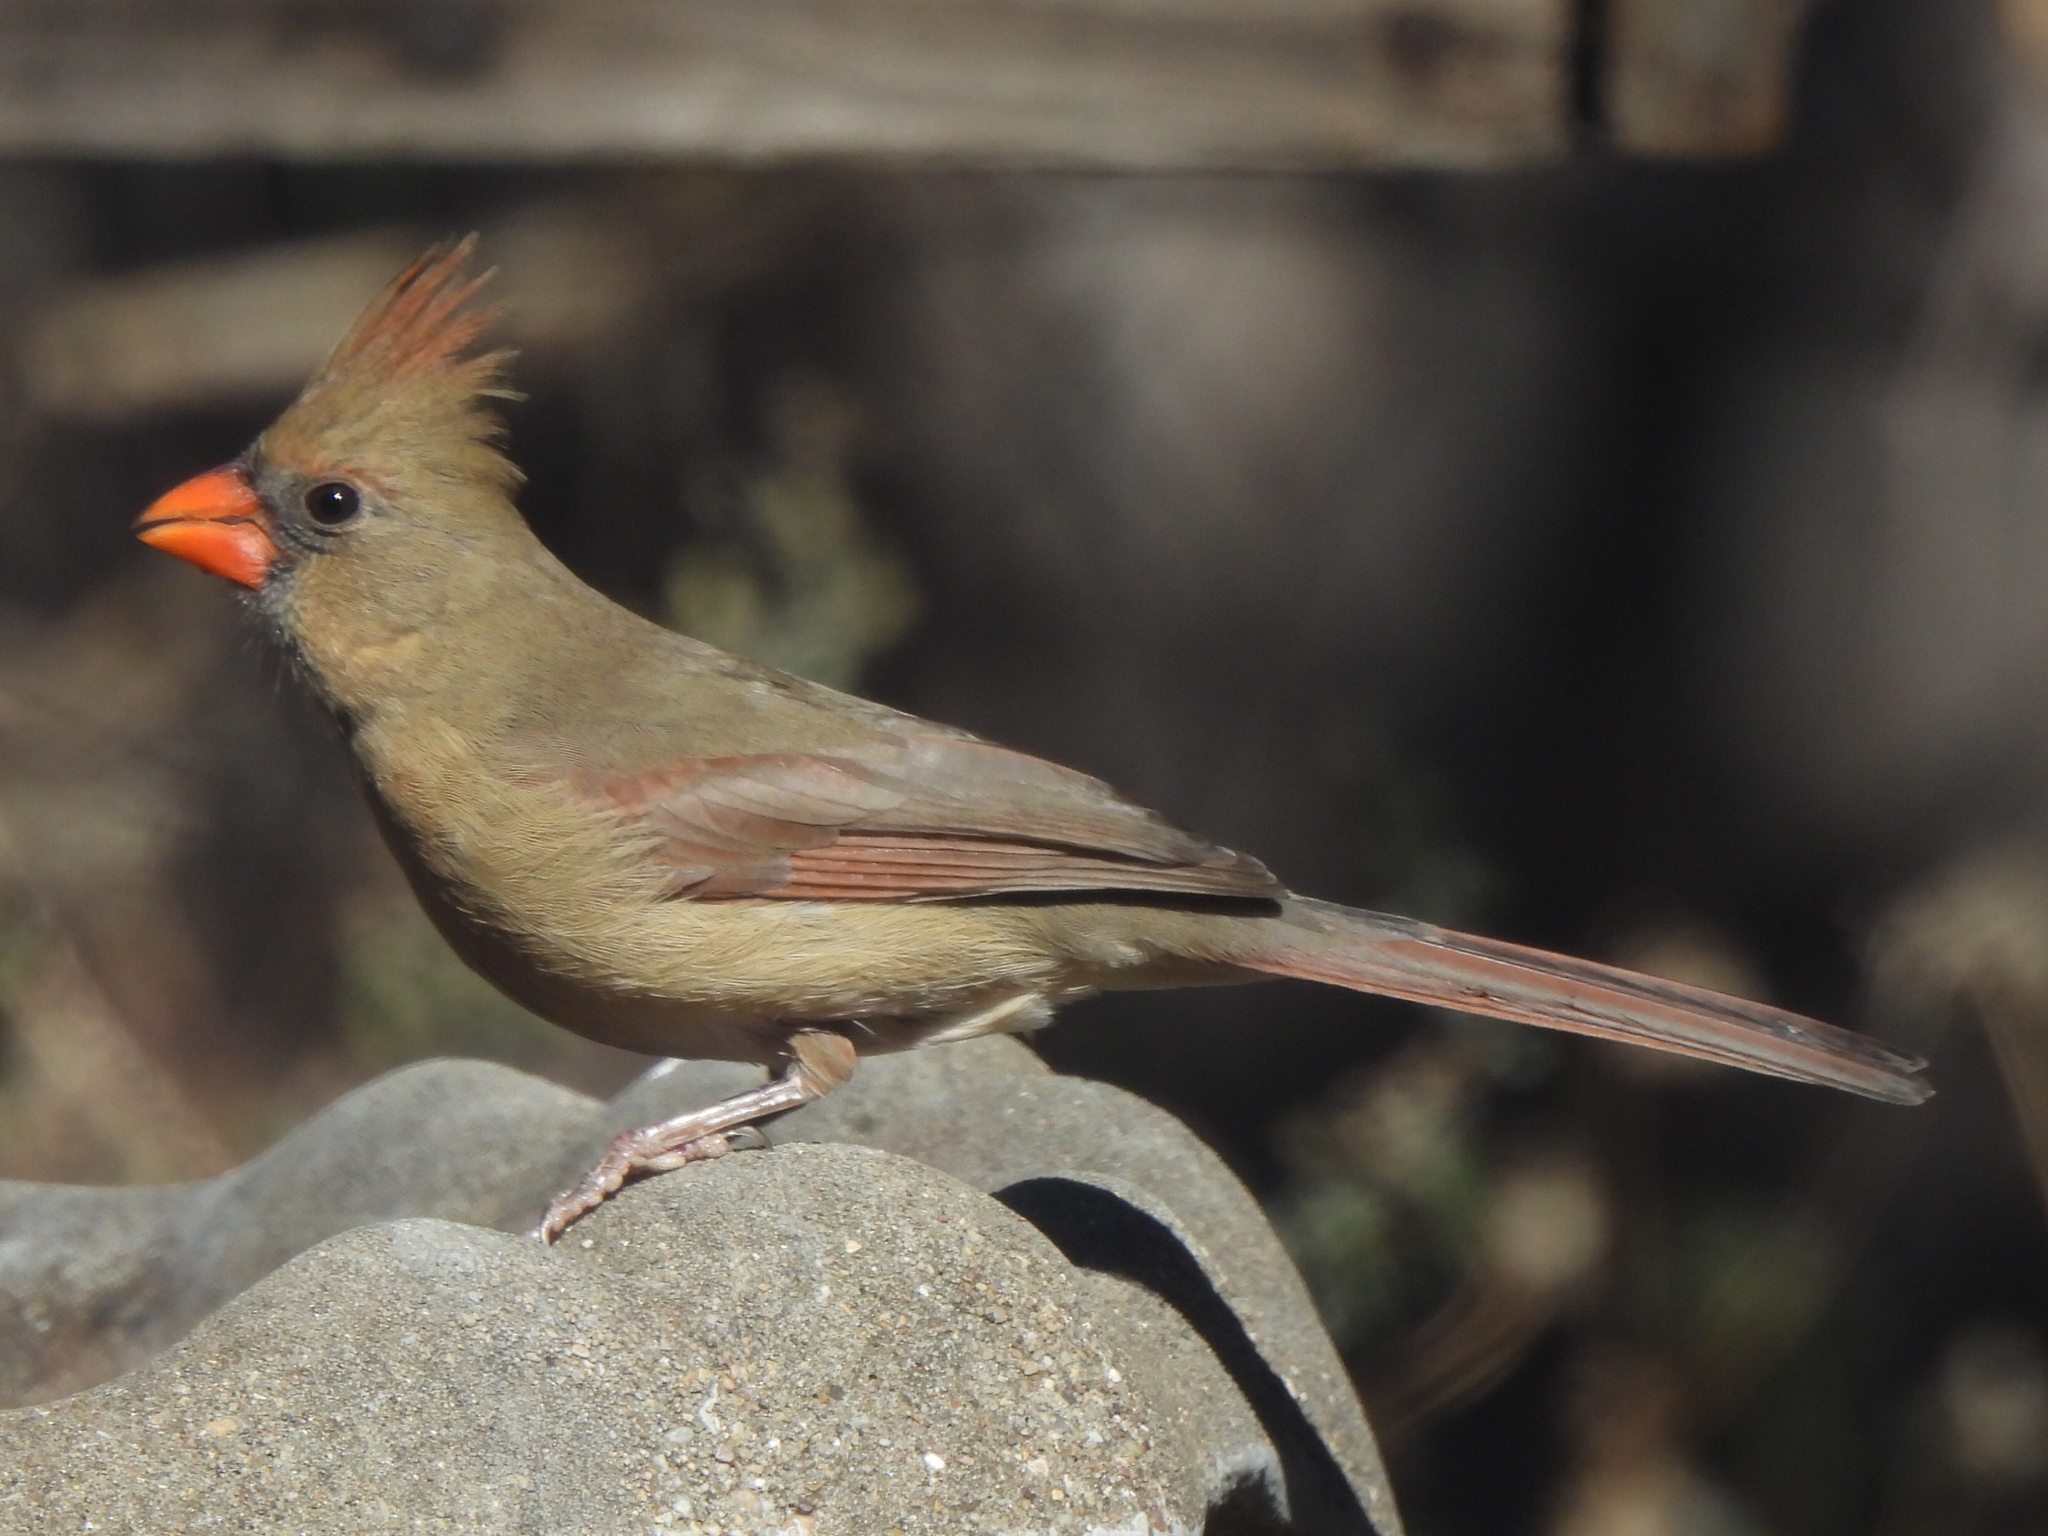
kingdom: Animalia
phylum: Chordata
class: Aves
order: Passeriformes
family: Cardinalidae
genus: Cardinalis
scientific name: Cardinalis cardinalis
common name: Northern cardinal
